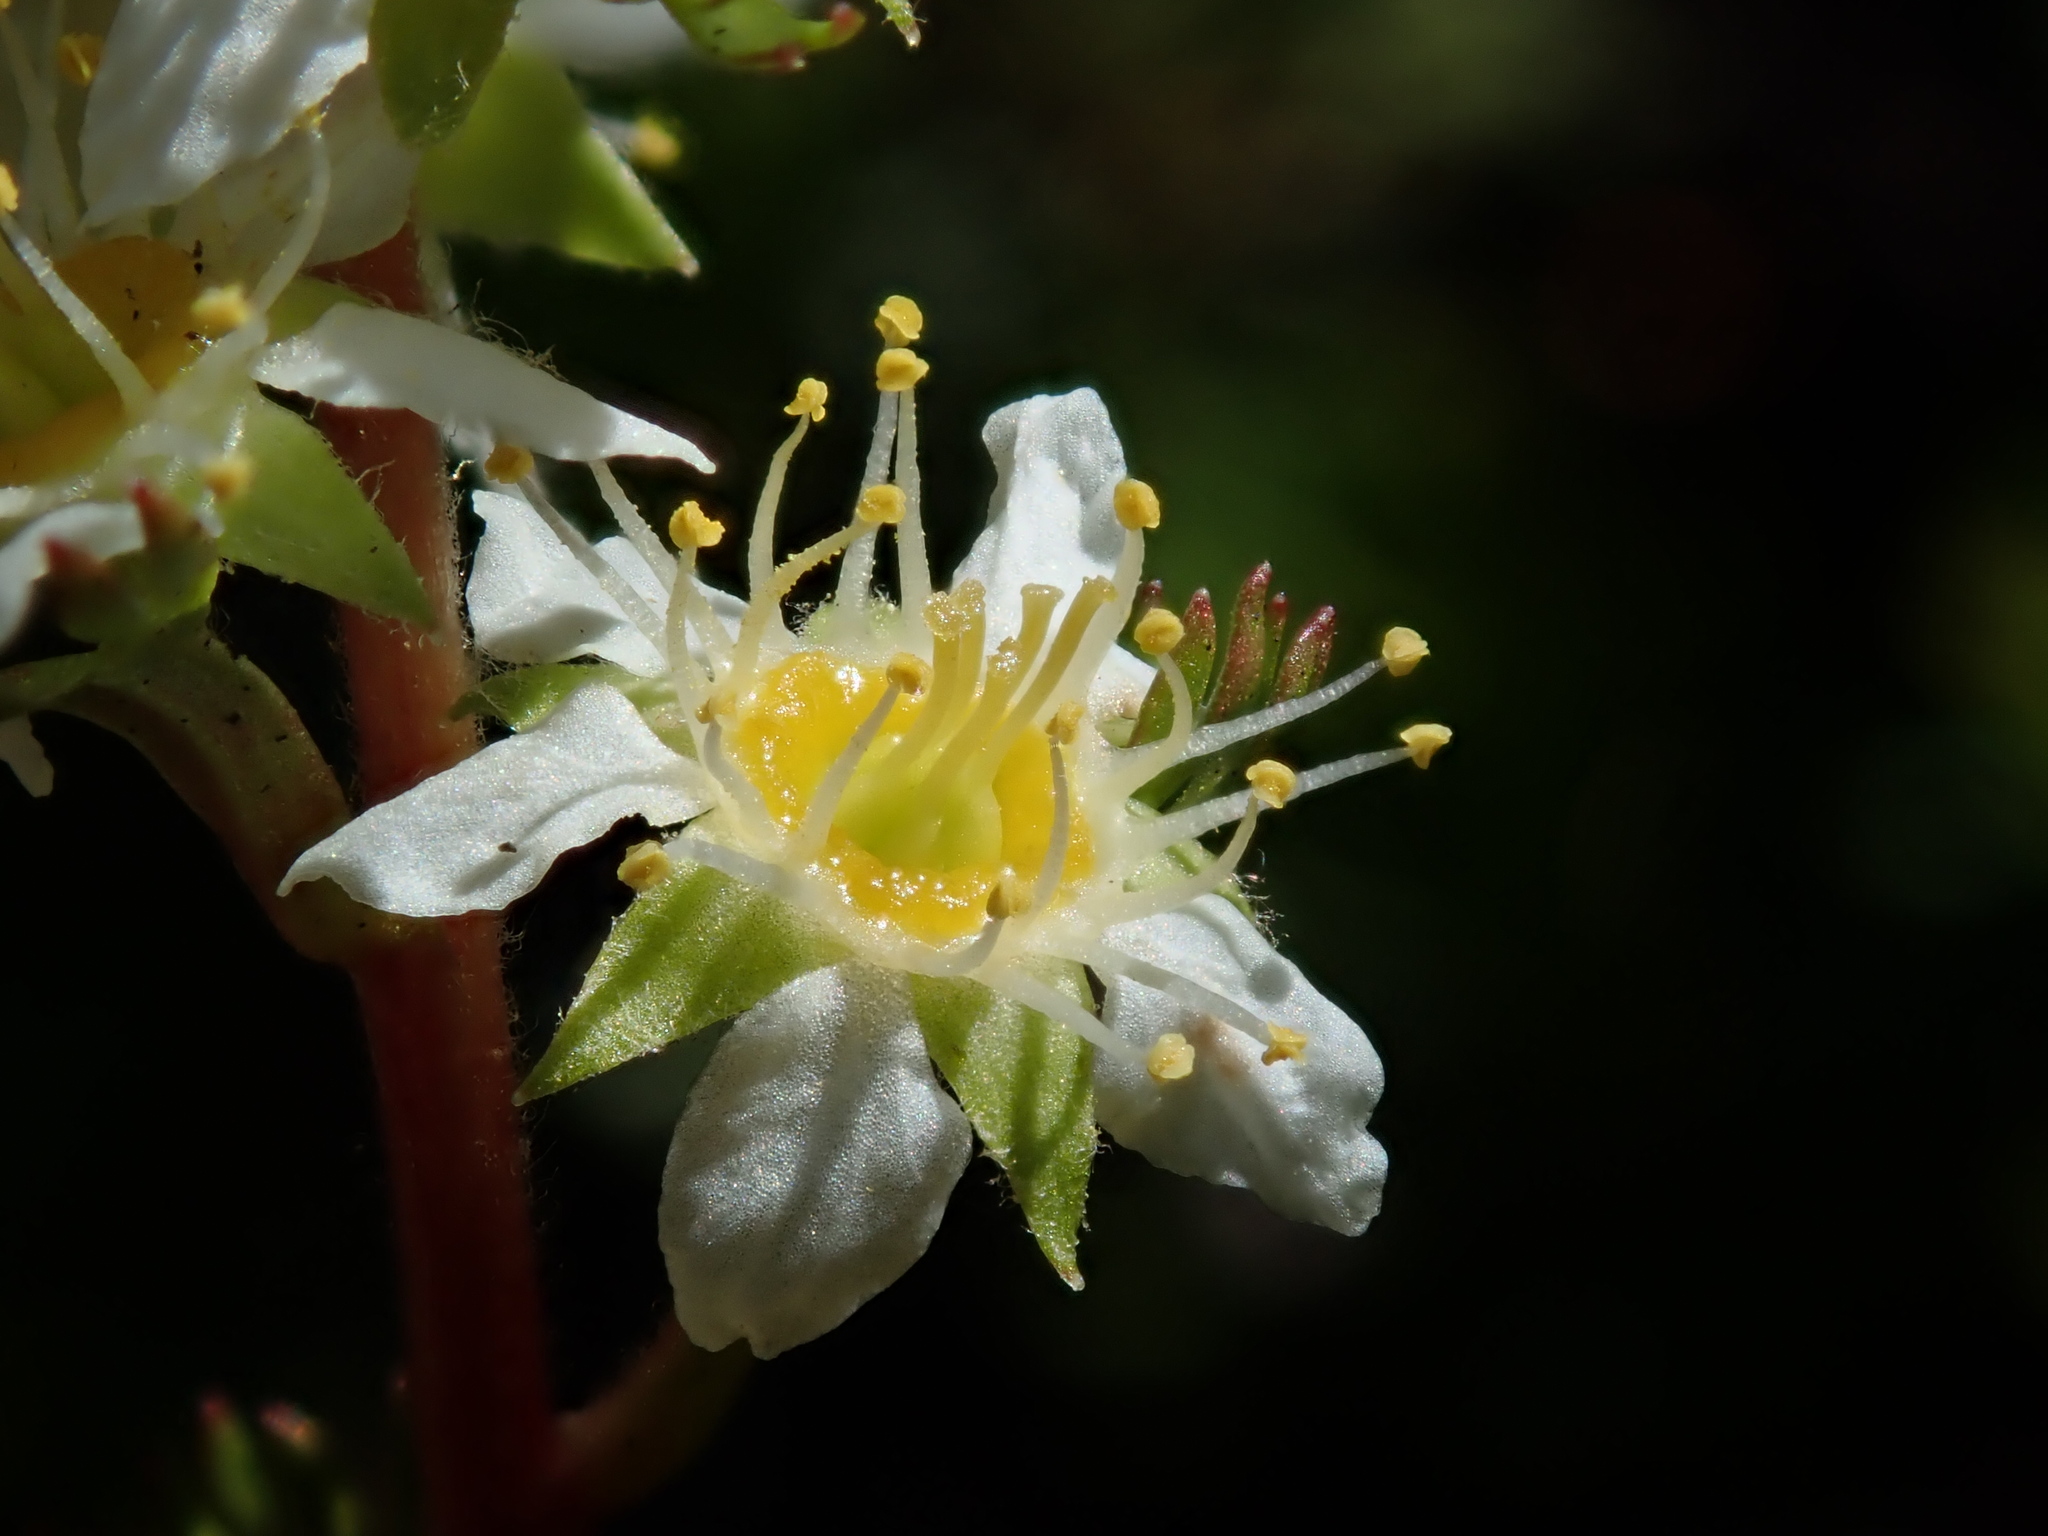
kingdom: Plantae
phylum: Tracheophyta
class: Magnoliopsida
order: Rosales
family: Rosaceae
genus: Luetkea
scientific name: Luetkea pectinata
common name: Partridgefoot
